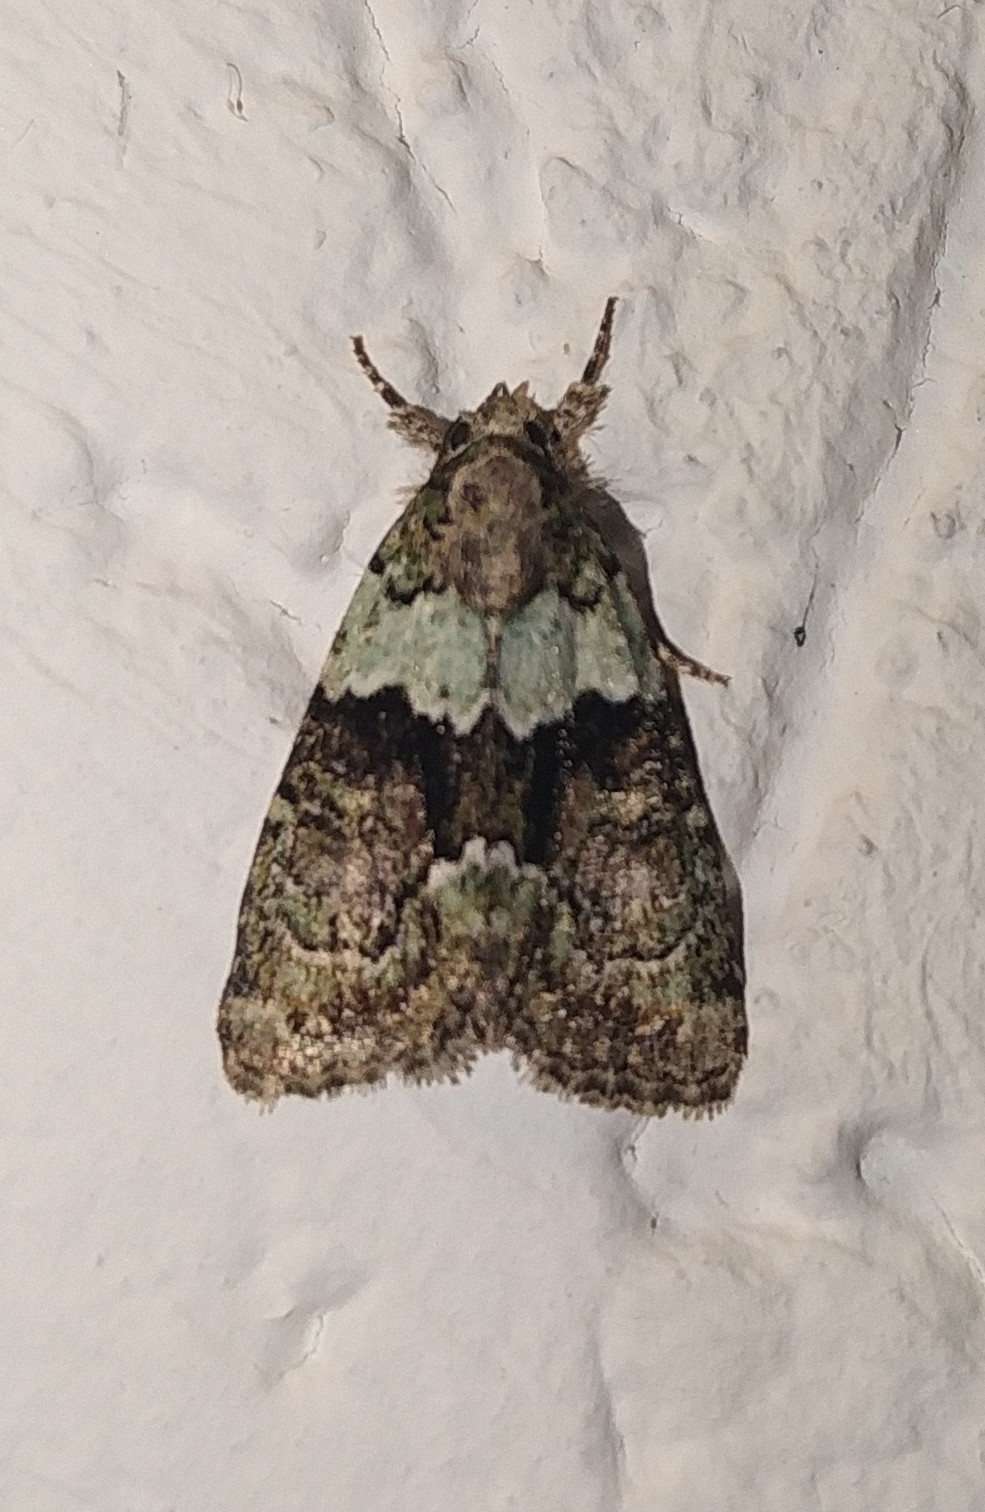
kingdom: Animalia
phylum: Arthropoda
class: Insecta
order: Lepidoptera
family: Noctuidae
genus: Cryphia
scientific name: Cryphia algae
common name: Tree-lichen beauty
